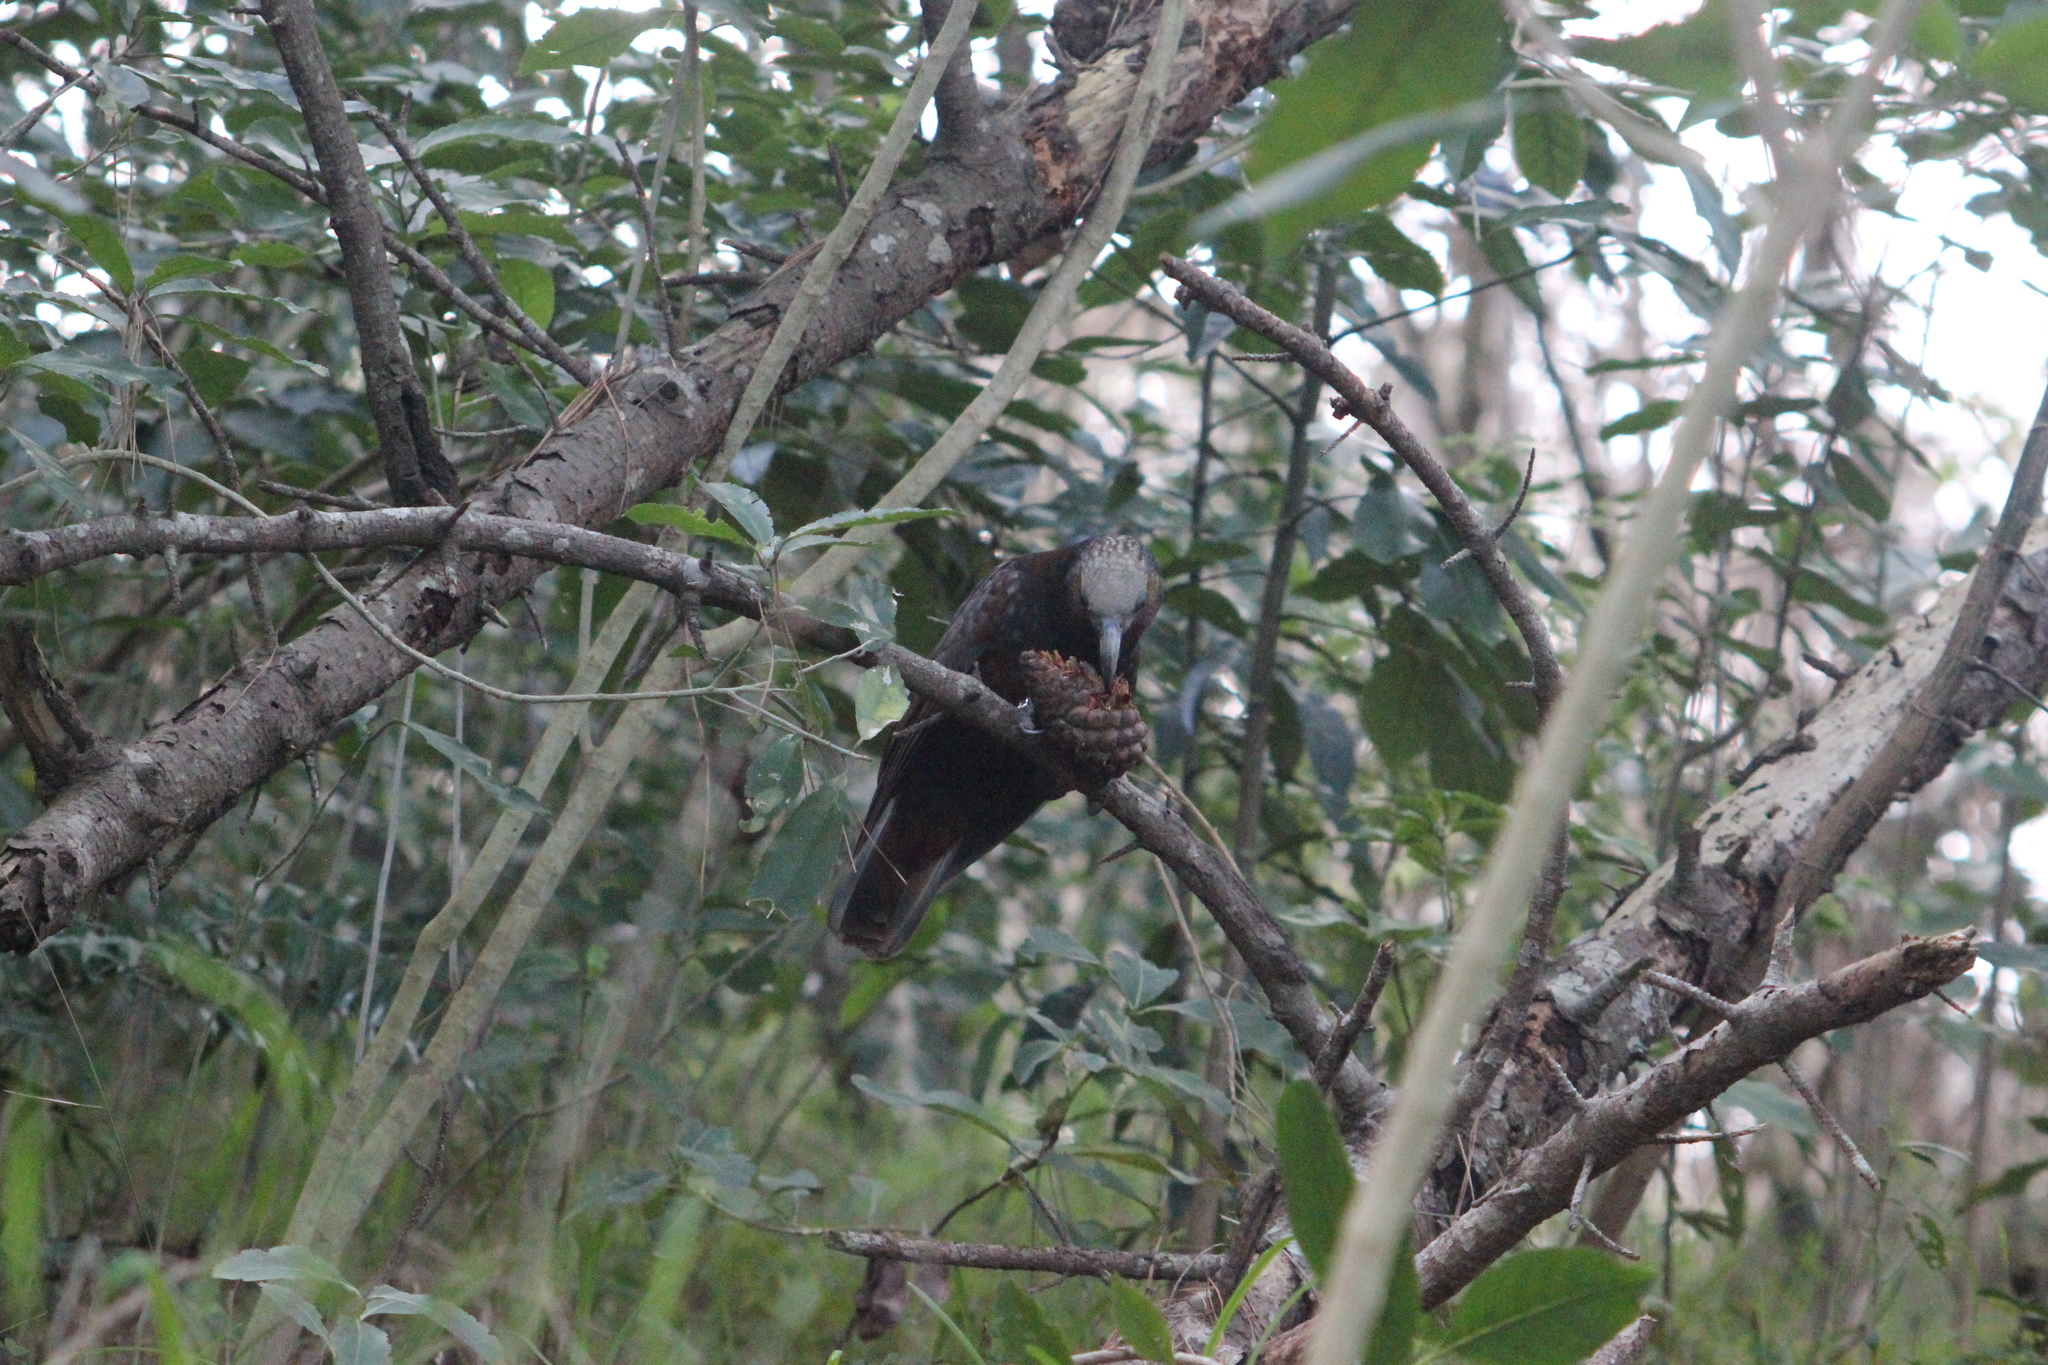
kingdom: Animalia
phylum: Chordata
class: Aves
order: Psittaciformes
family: Psittacidae
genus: Nestor
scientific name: Nestor meridionalis
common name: New zealand kaka
